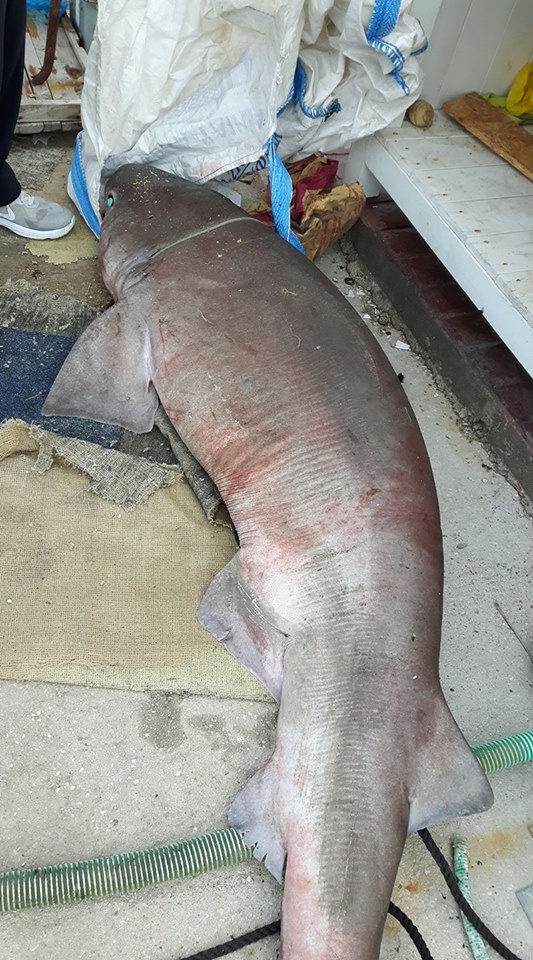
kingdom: Animalia
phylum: Chordata
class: Elasmobranchii
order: Hexanchiformes
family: Hexanchidae
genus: Hexanchus
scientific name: Hexanchus griseus
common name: Bluntnose sixgill shark
